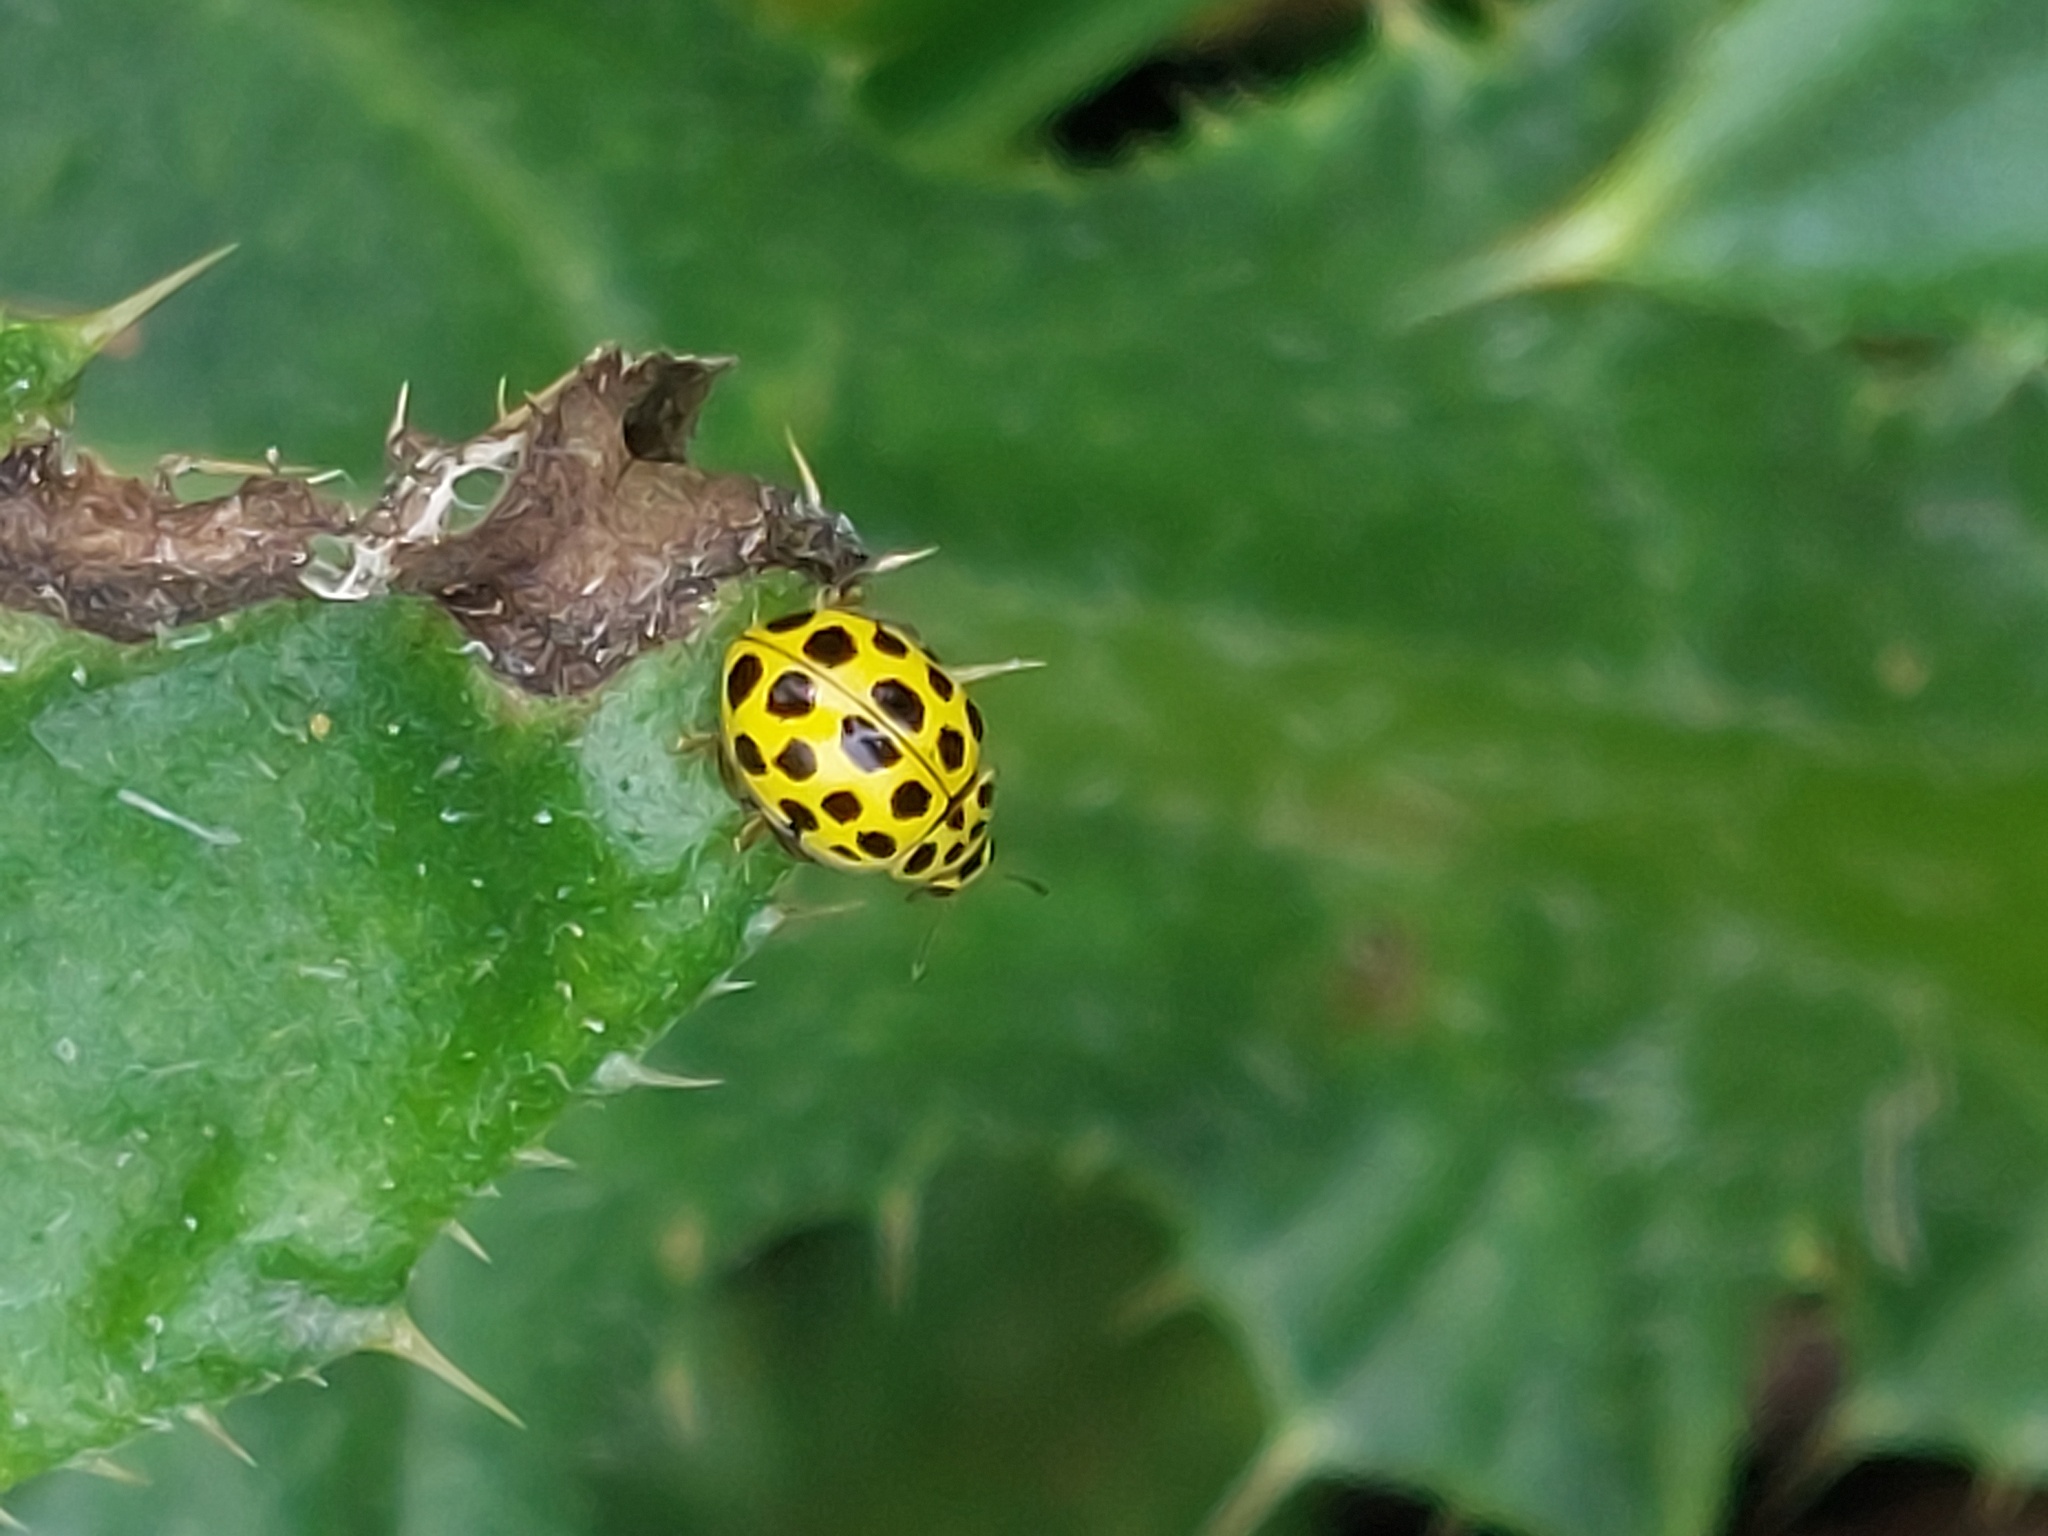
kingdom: Animalia
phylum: Arthropoda
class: Insecta
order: Coleoptera
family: Coccinellidae
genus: Psyllobora
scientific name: Psyllobora vigintiduopunctata
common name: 22-spot ladybird
